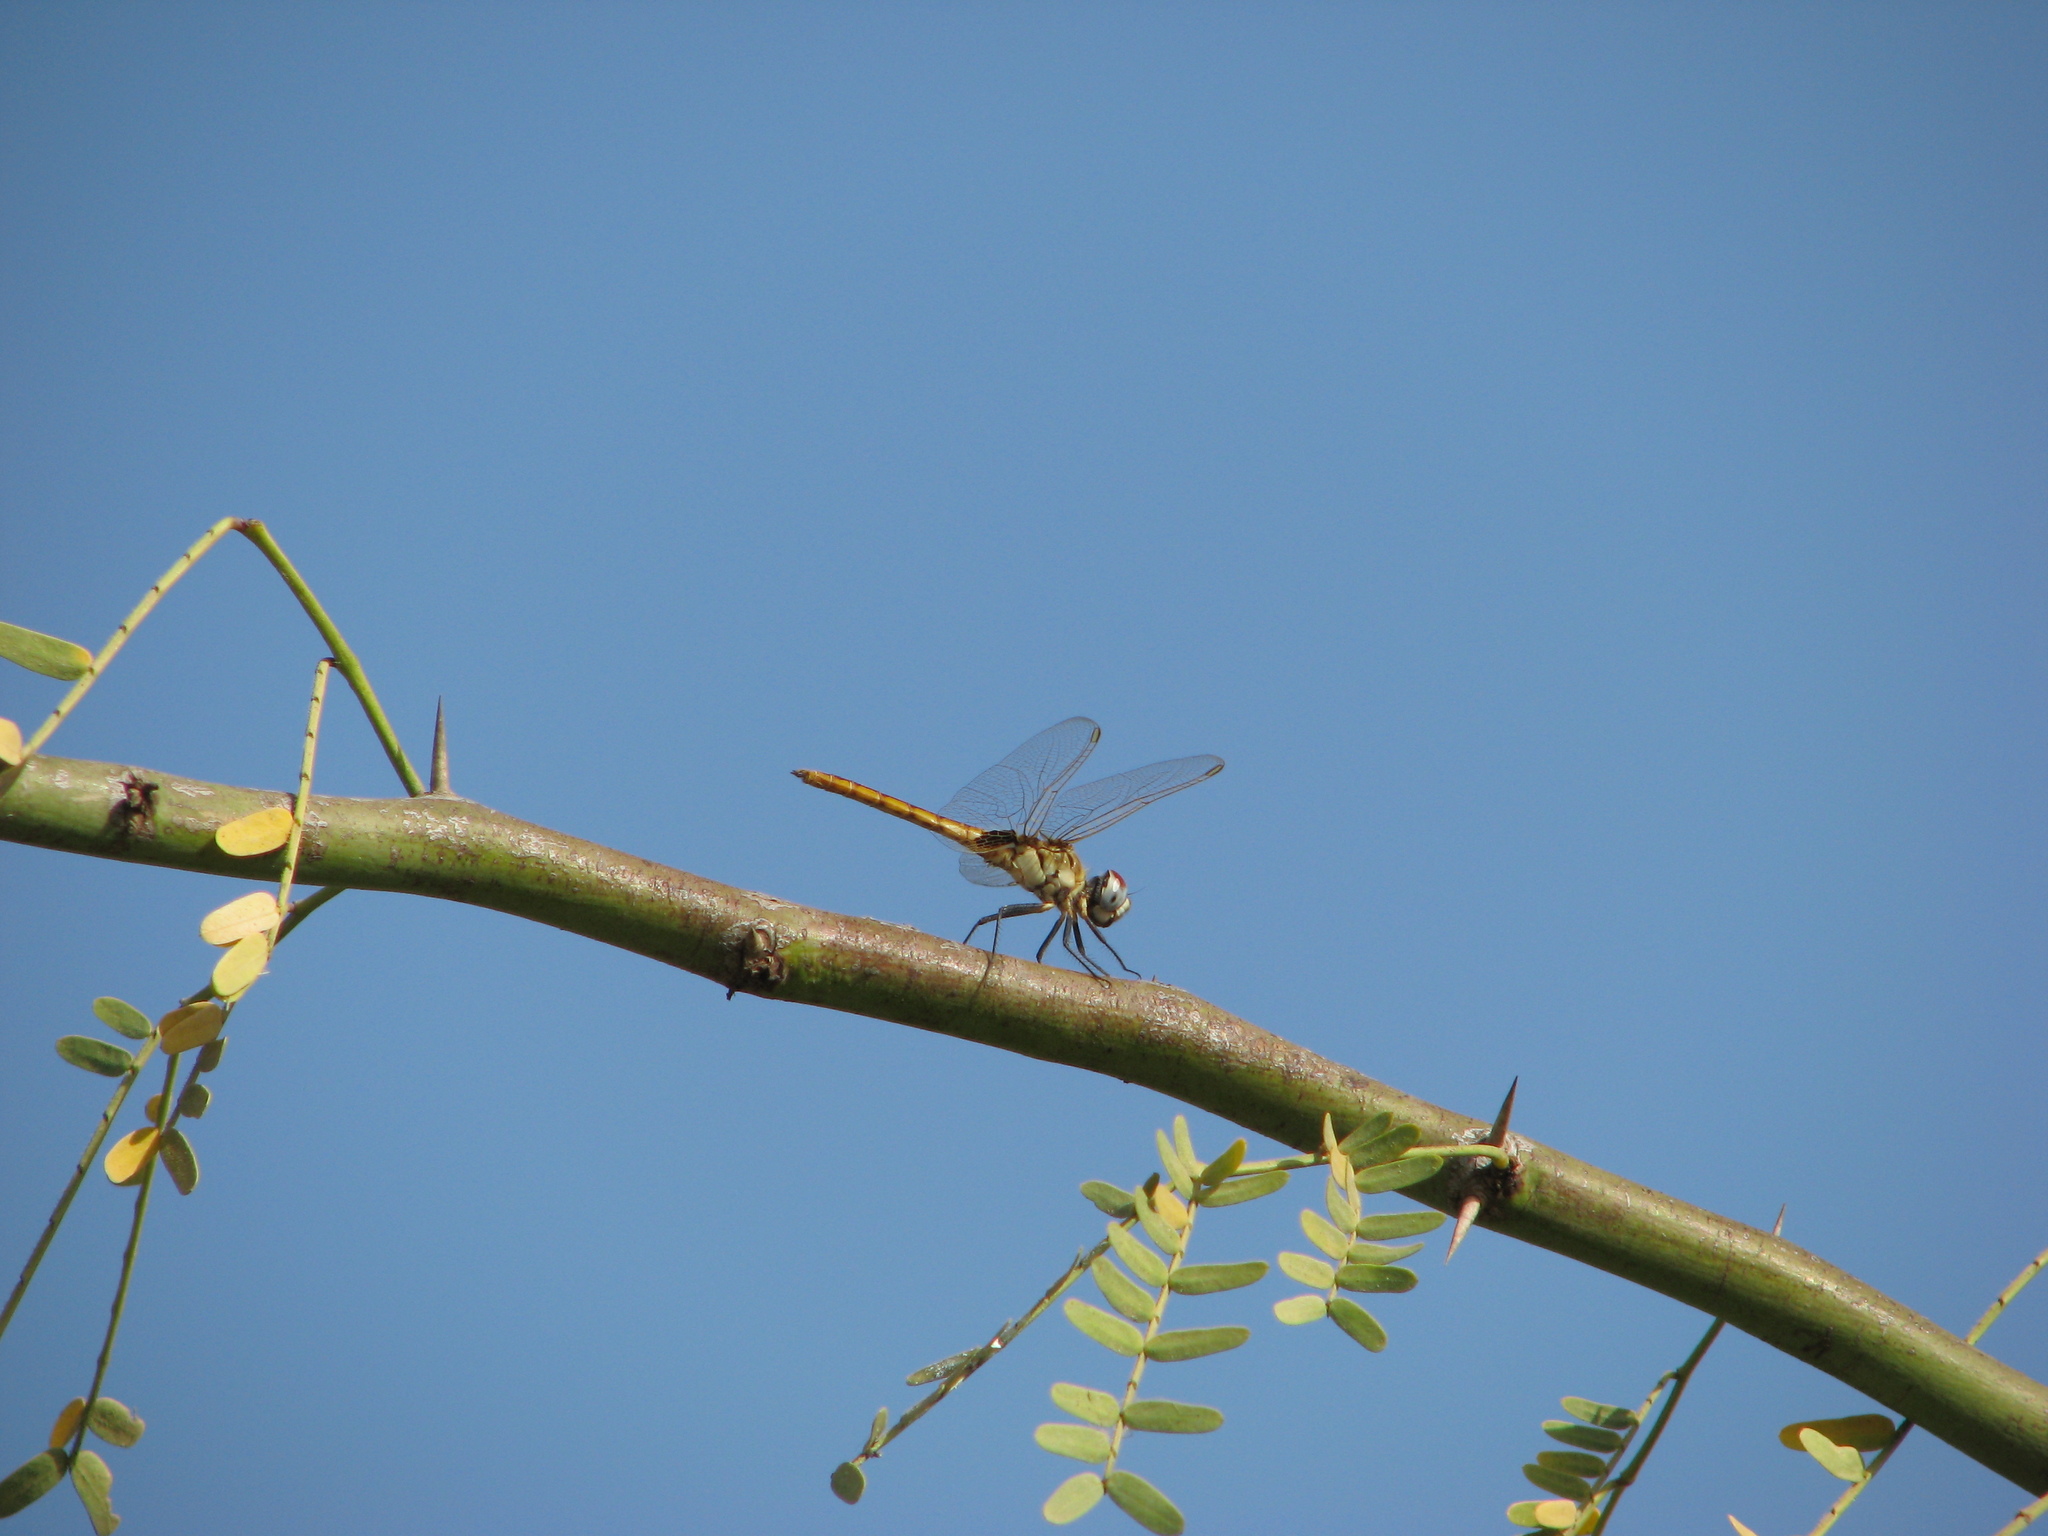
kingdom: Animalia
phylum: Arthropoda
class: Insecta
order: Odonata
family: Libellulidae
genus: Urothemis
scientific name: Urothemis edwardsii
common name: Blue basker
